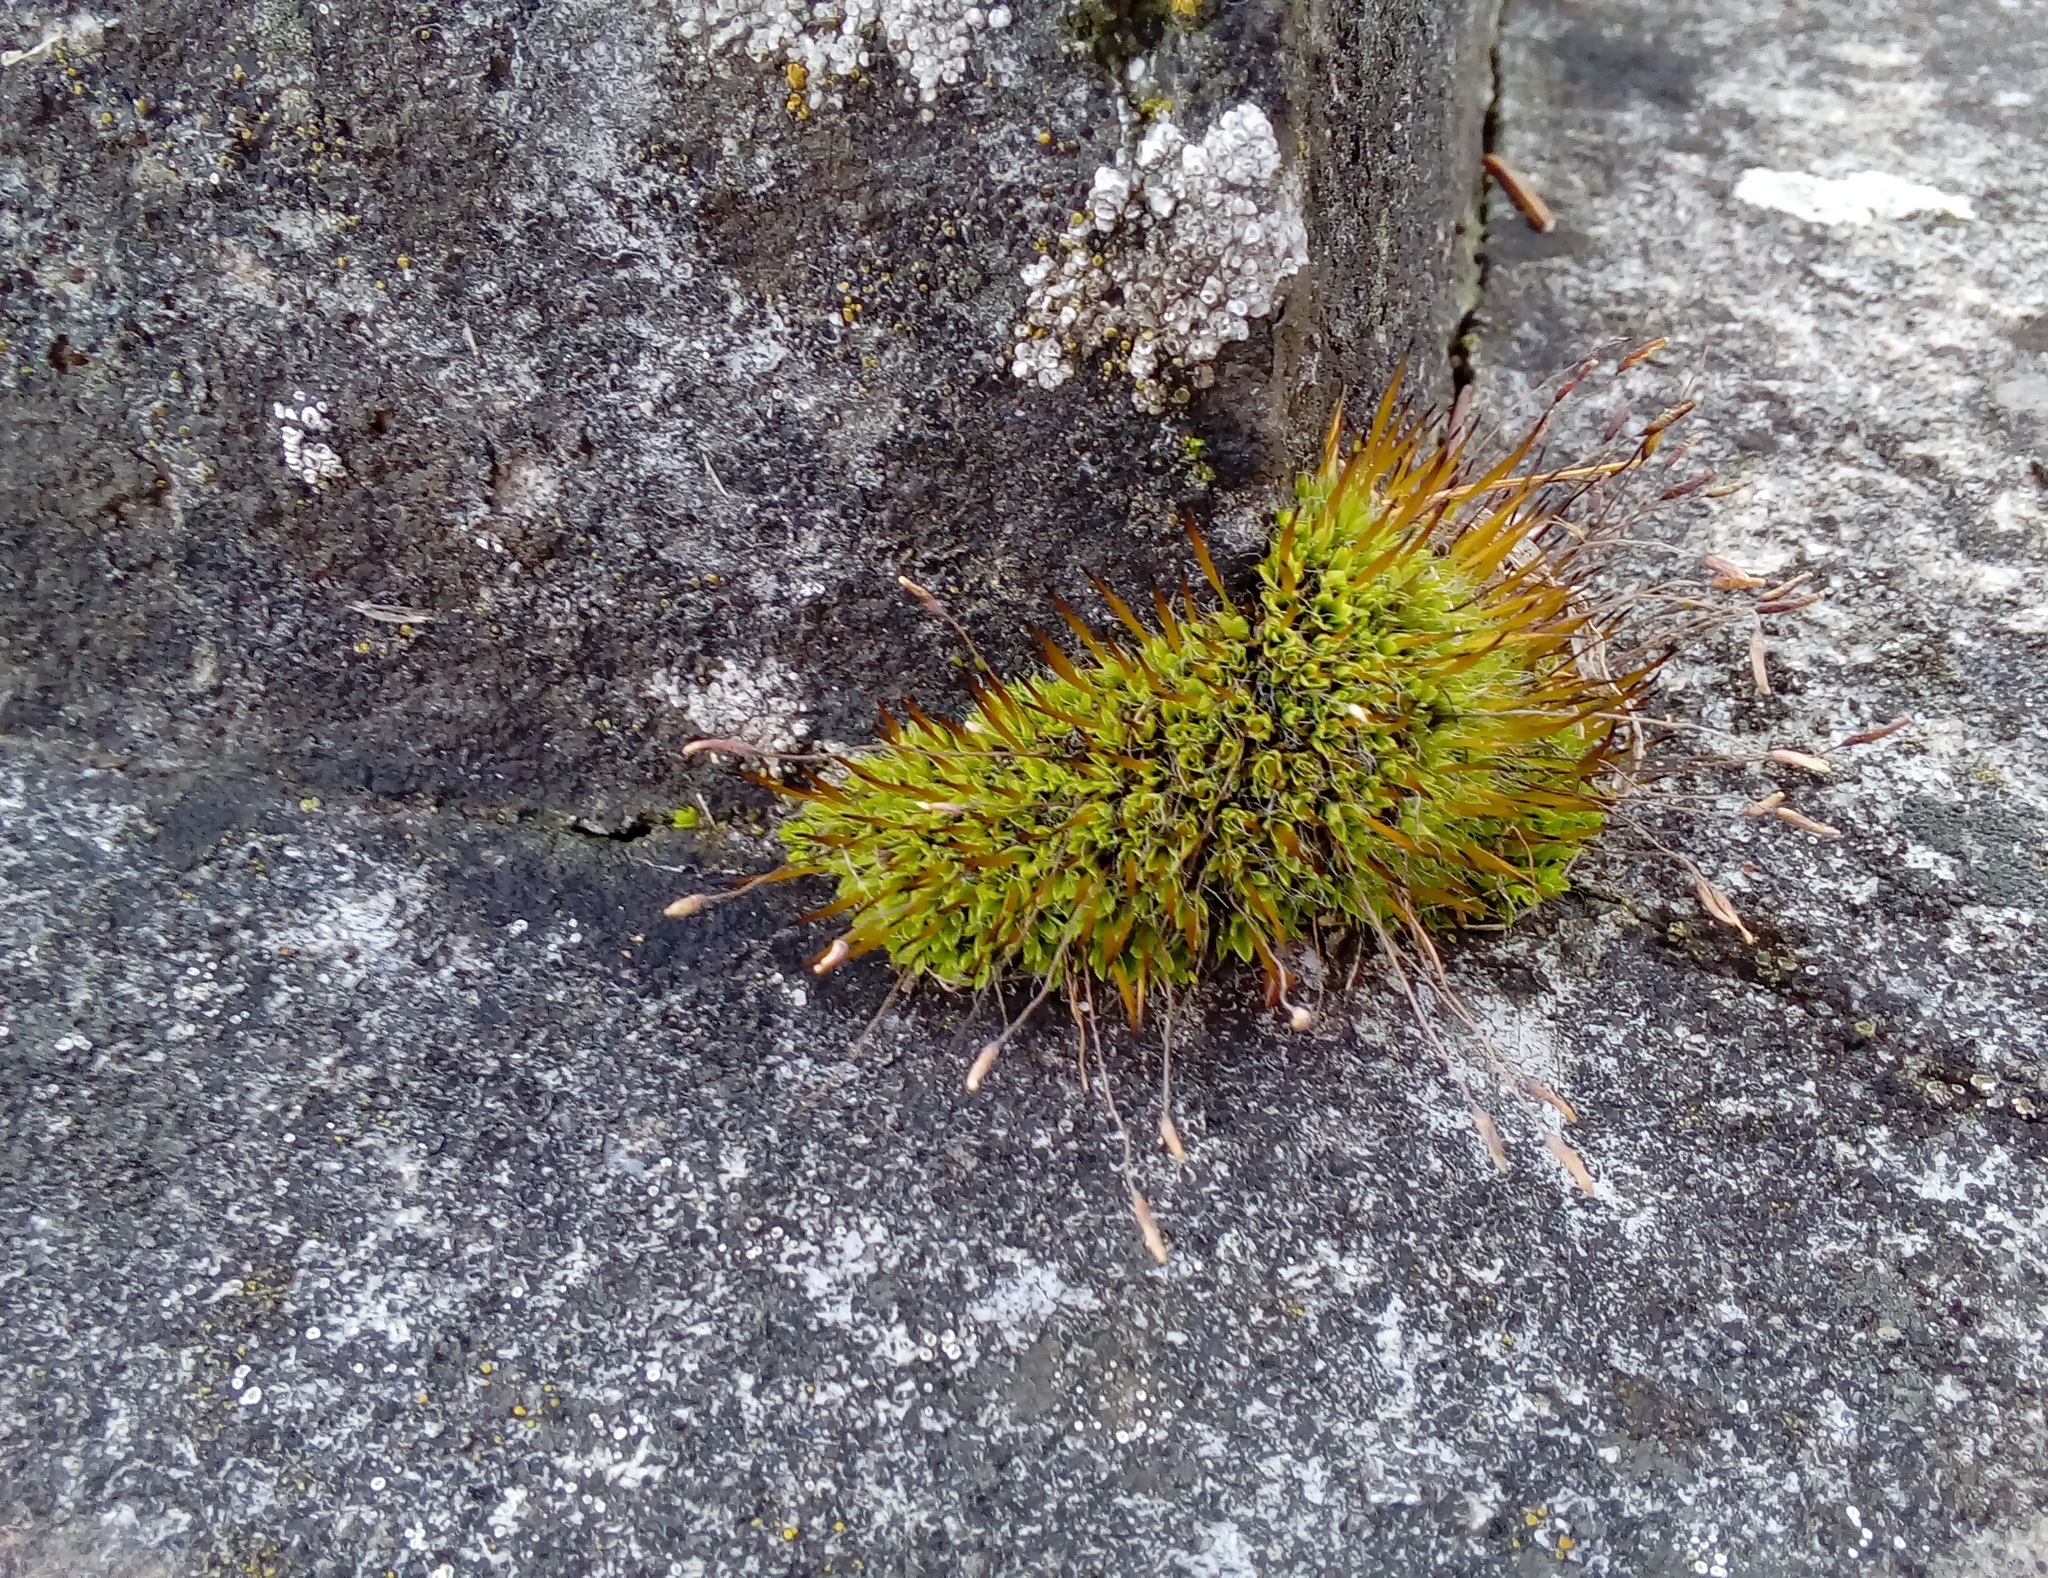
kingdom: Plantae
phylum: Bryophyta
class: Bryopsida
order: Pottiales
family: Pottiaceae
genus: Tortula
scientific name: Tortula muralis
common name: Wall screw-moss
